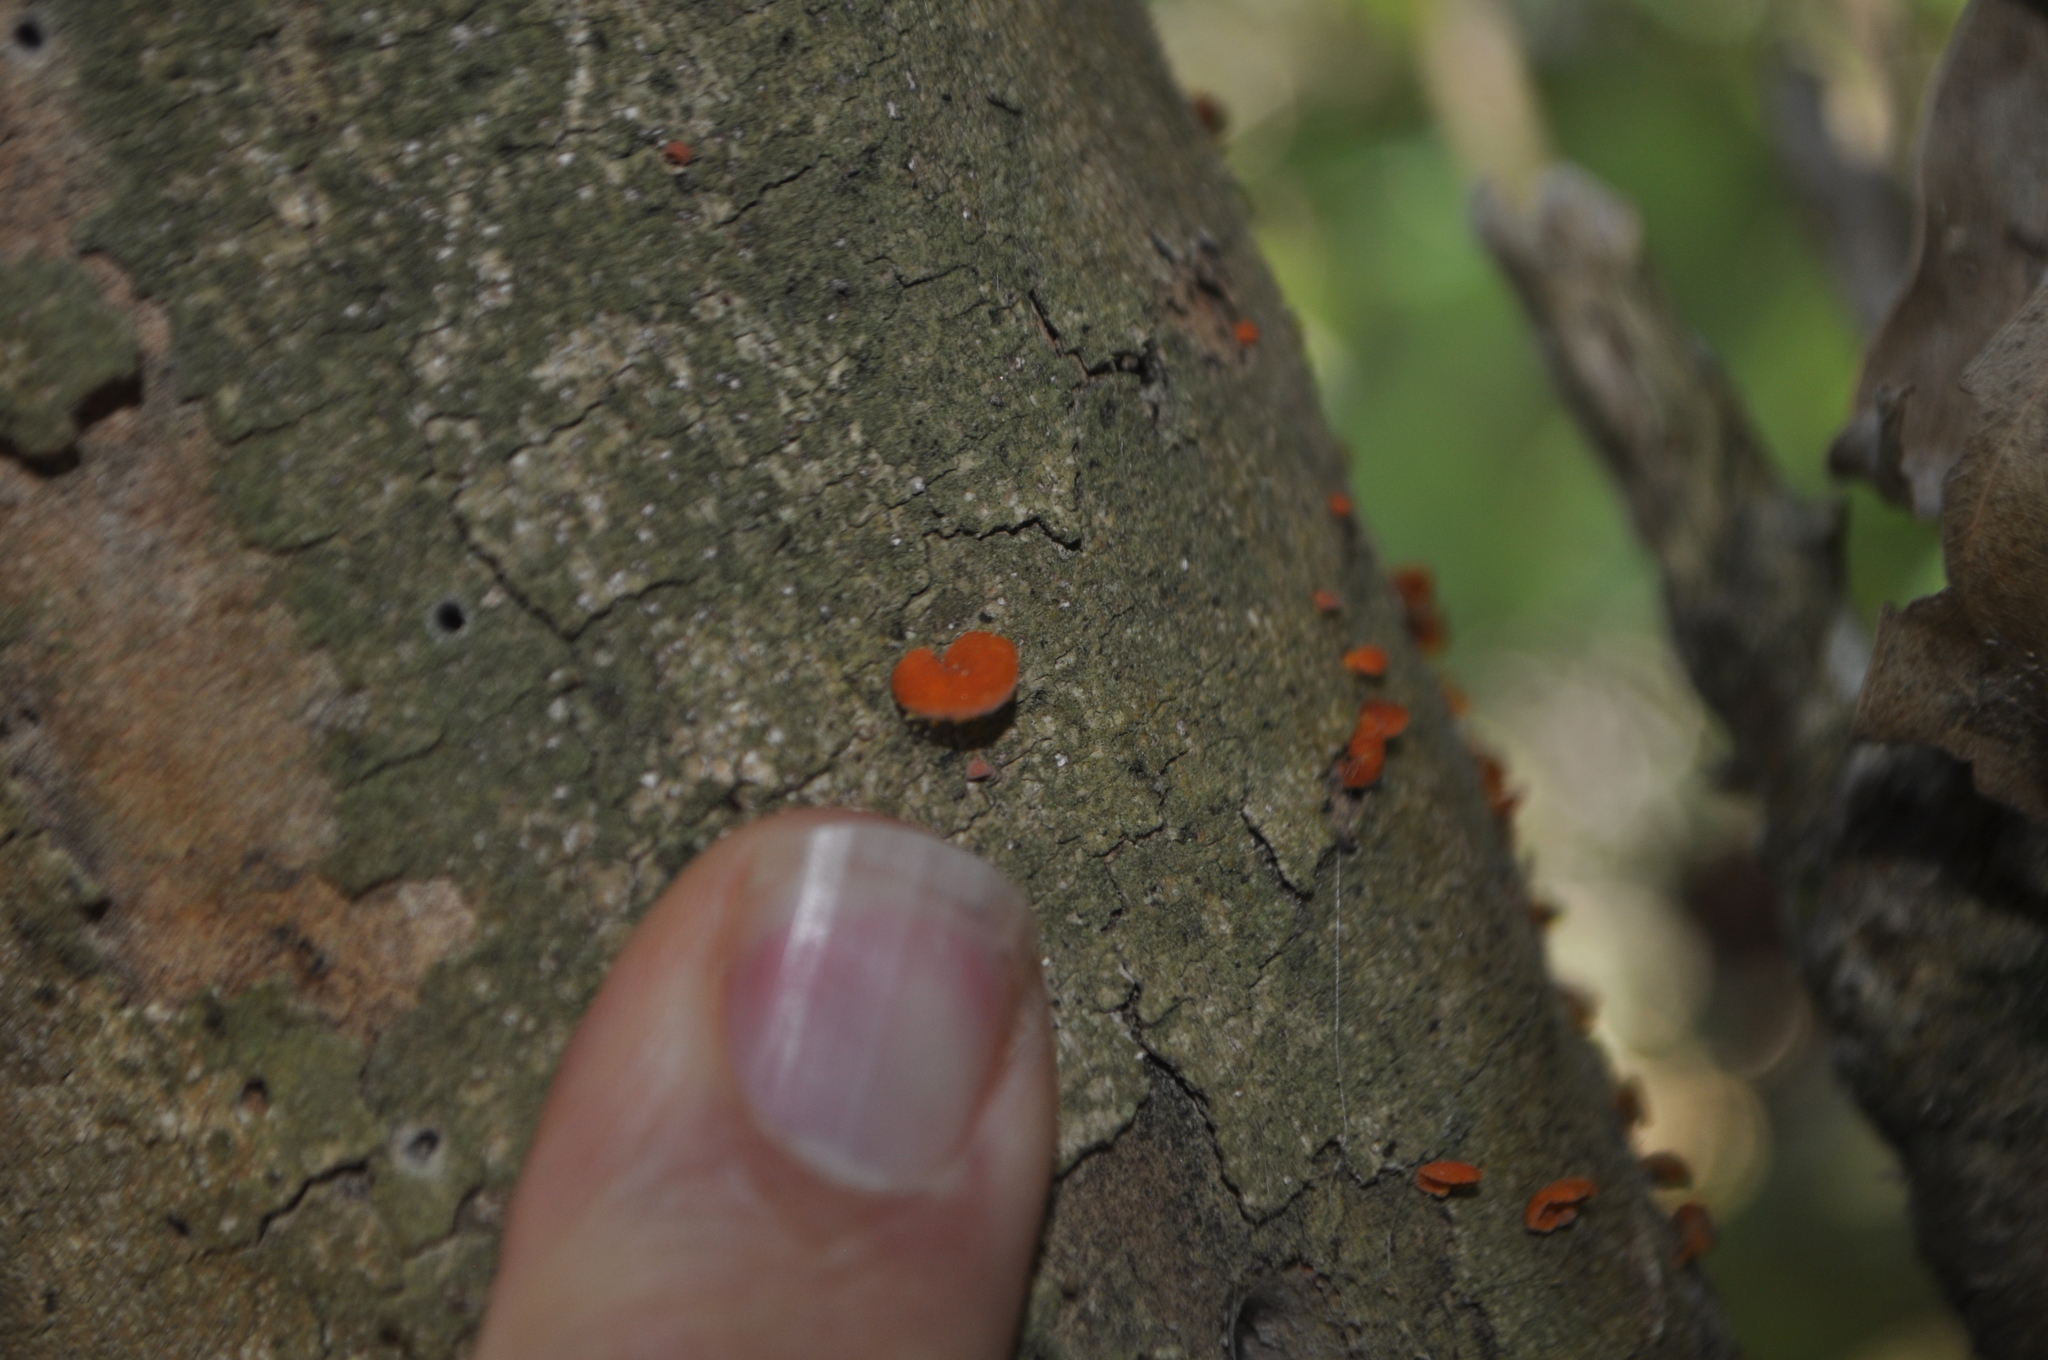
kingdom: Fungi
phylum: Basidiomycota
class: Agaricomycetes
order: Agaricales
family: Mycenaceae
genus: Favolaschia
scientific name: Favolaschia claudopus
